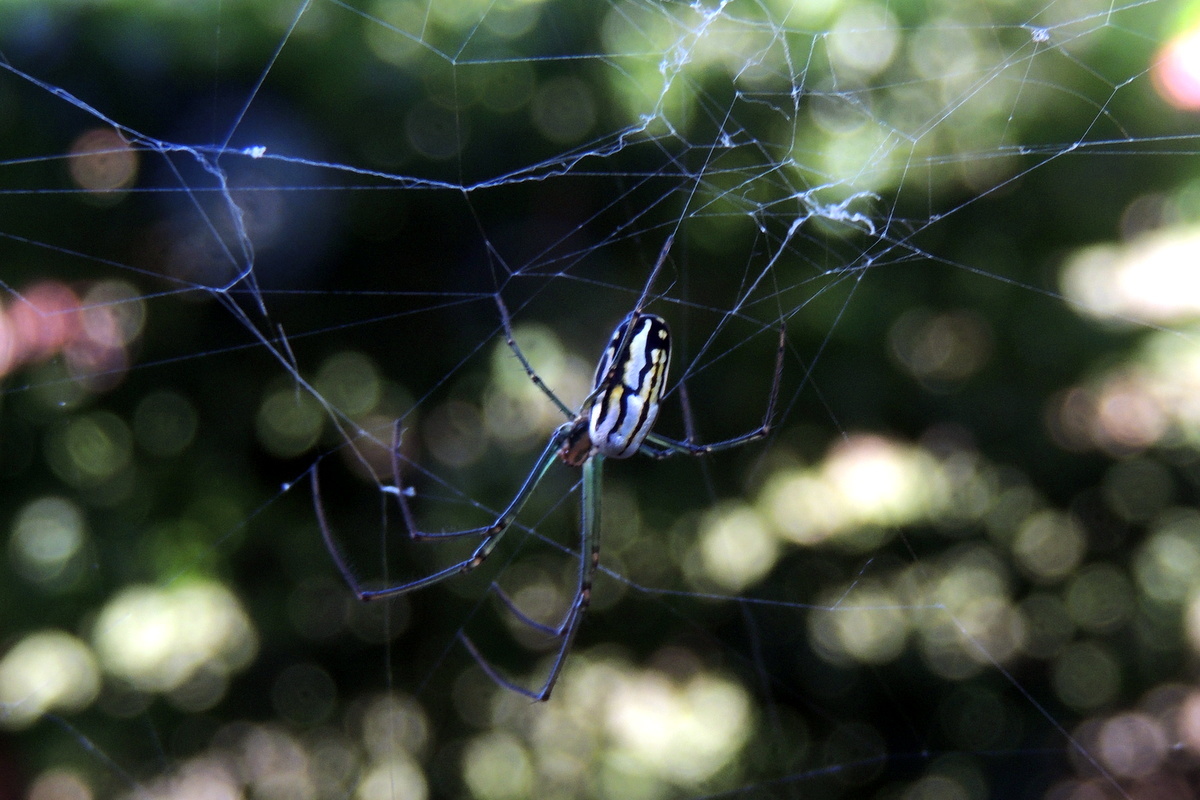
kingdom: Animalia
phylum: Arthropoda
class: Arachnida
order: Araneae
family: Tetragnathidae
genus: Leucauge
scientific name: Leucauge argyra
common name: Longjawed orb weavers
